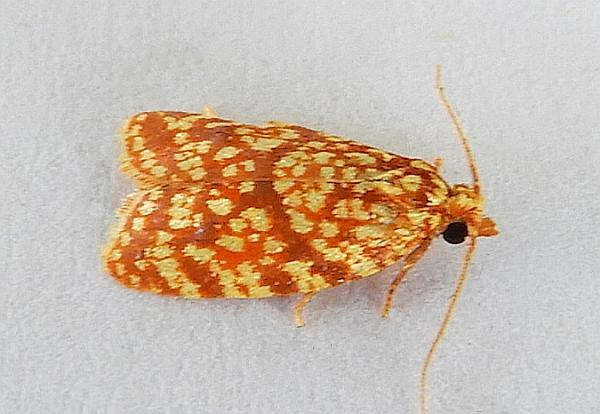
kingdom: Animalia
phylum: Arthropoda
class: Insecta
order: Lepidoptera
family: Tortricidae
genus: Sparganothis
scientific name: Sparganothis tessellata
